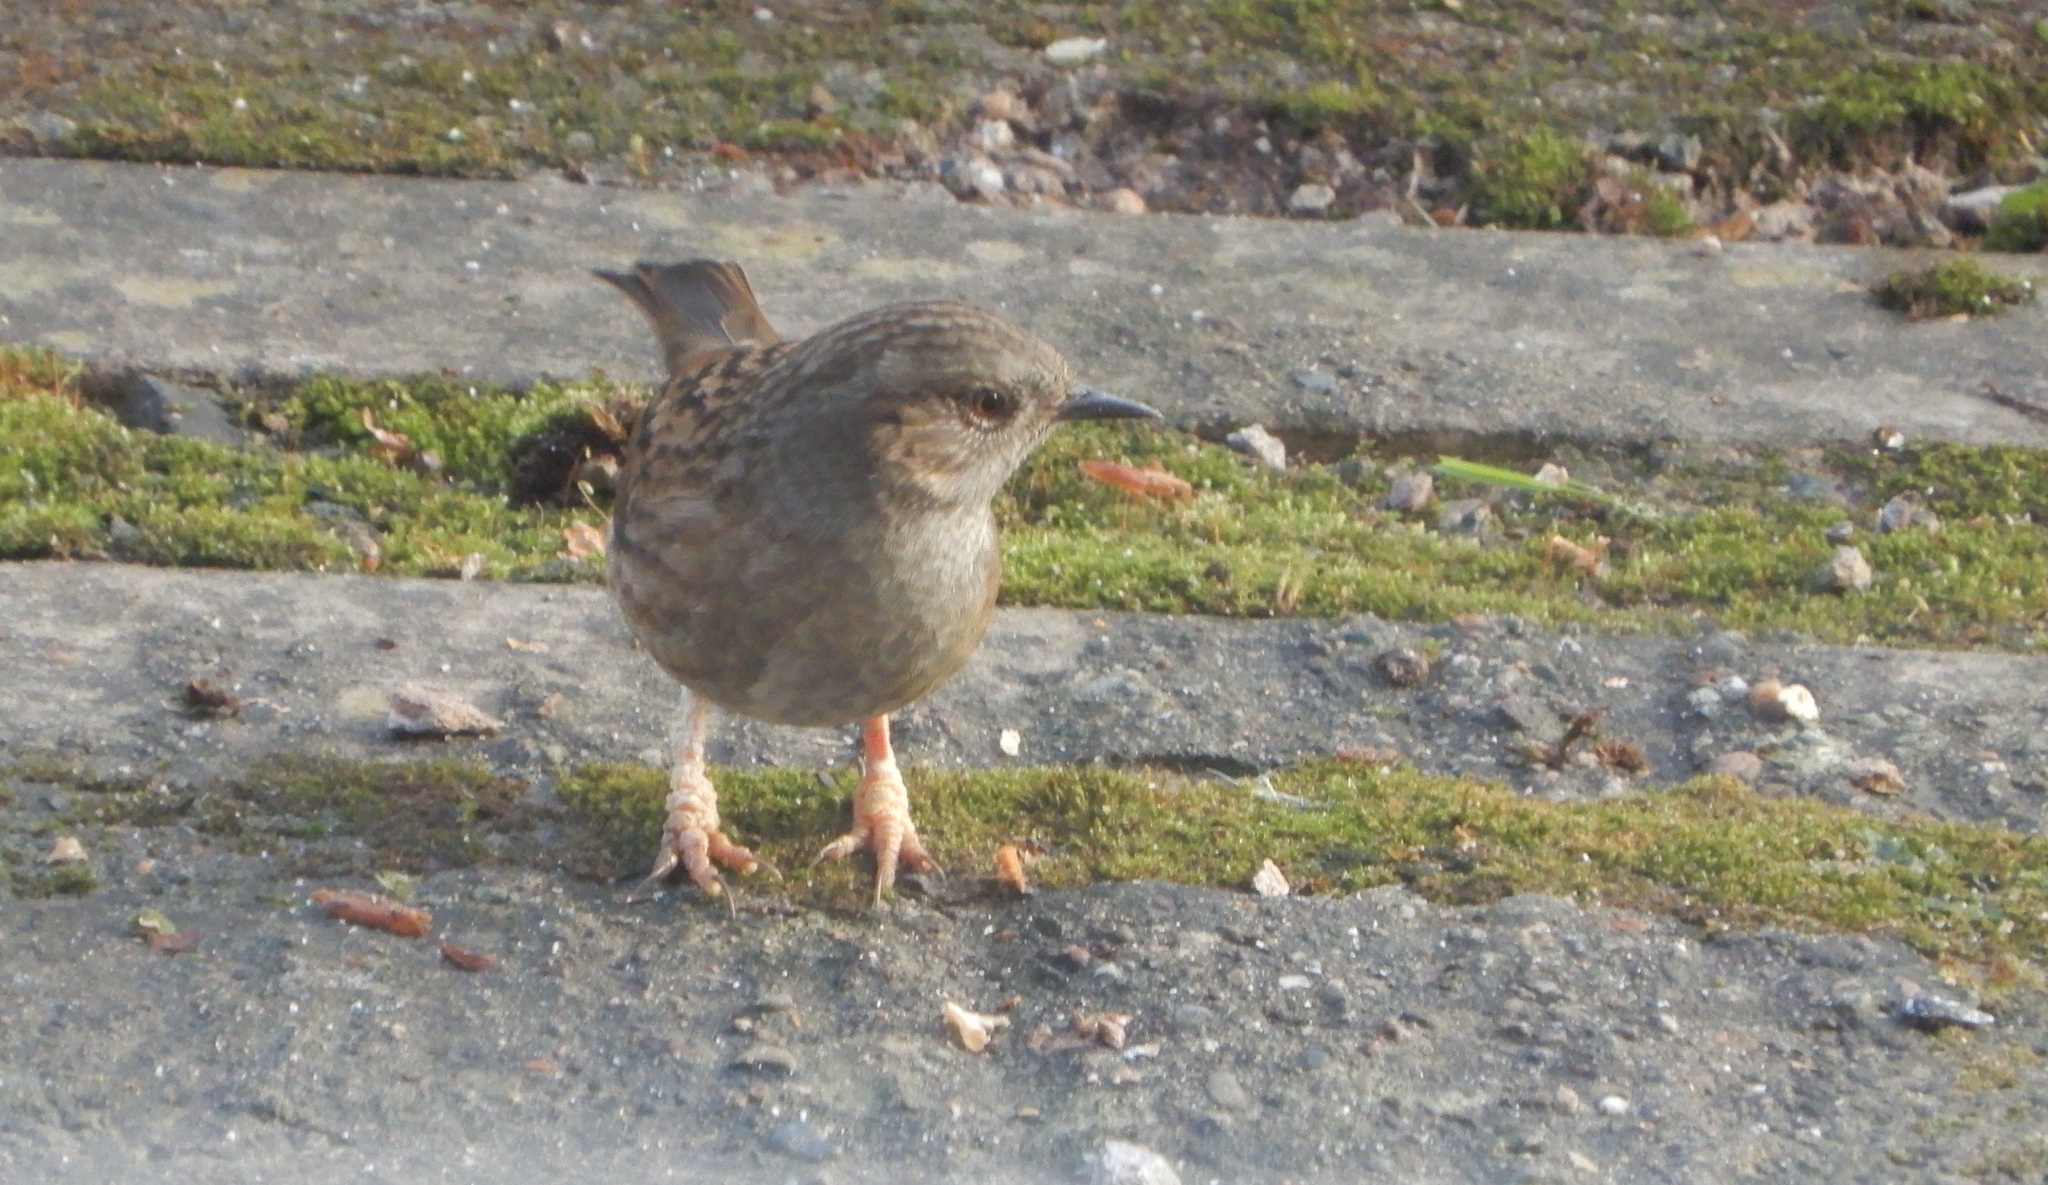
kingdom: Animalia
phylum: Chordata
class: Aves
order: Passeriformes
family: Prunellidae
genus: Prunella
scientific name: Prunella modularis
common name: Dunnock
